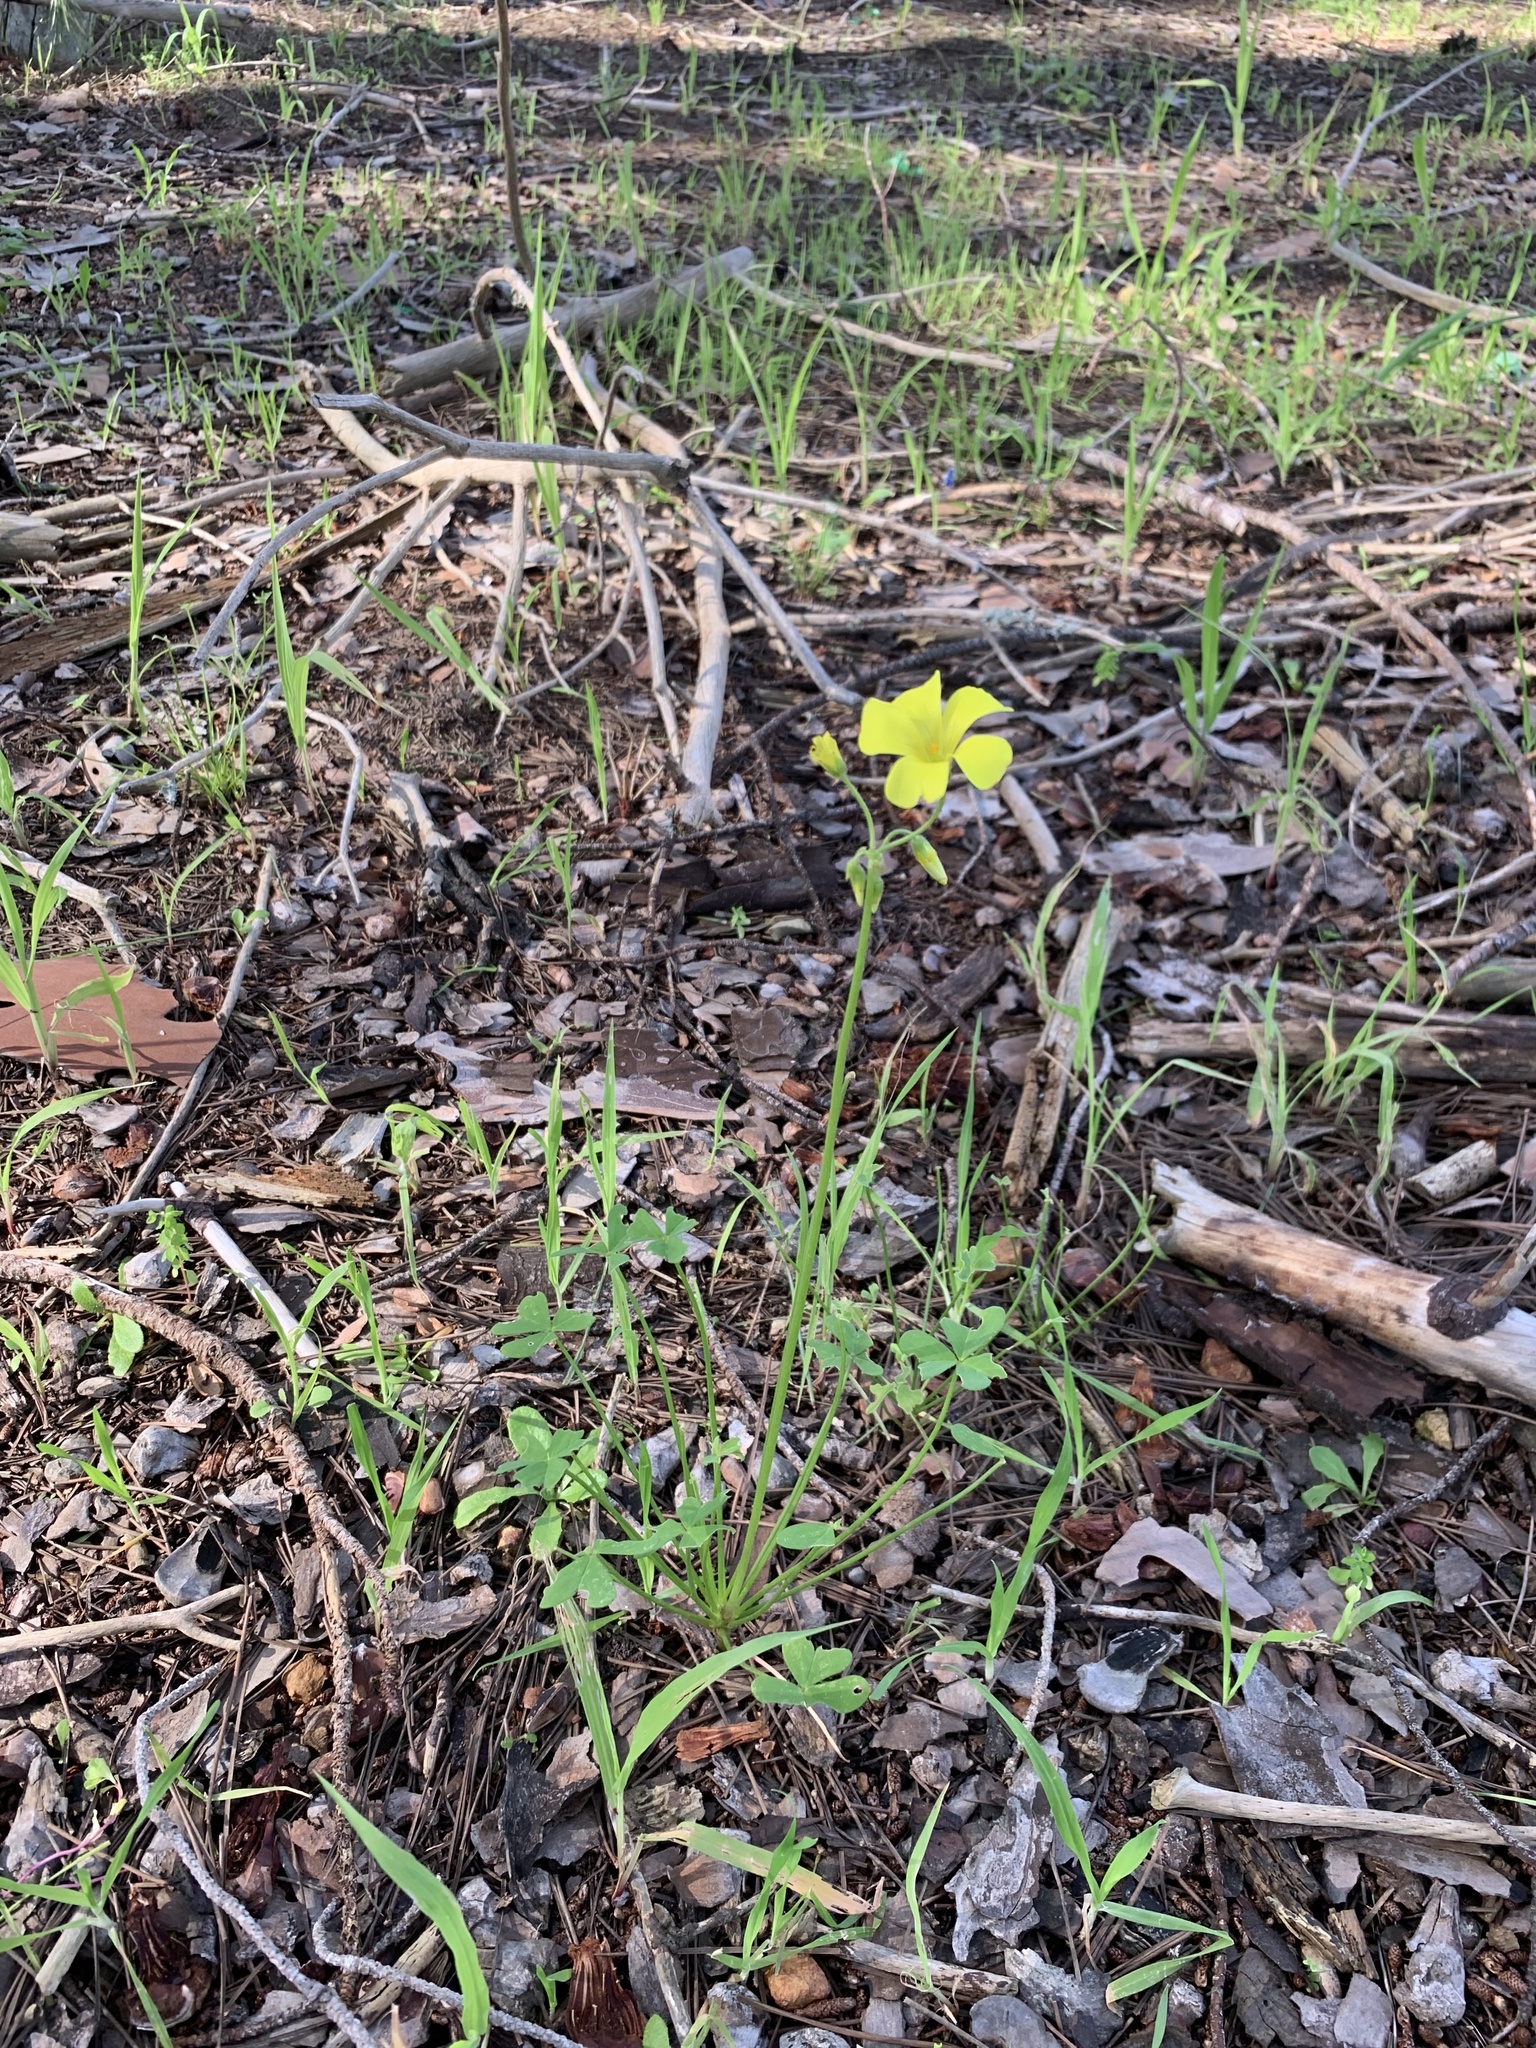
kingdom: Plantae
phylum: Tracheophyta
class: Magnoliopsida
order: Oxalidales
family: Oxalidaceae
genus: Oxalis
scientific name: Oxalis pes-caprae
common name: Bermuda-buttercup
